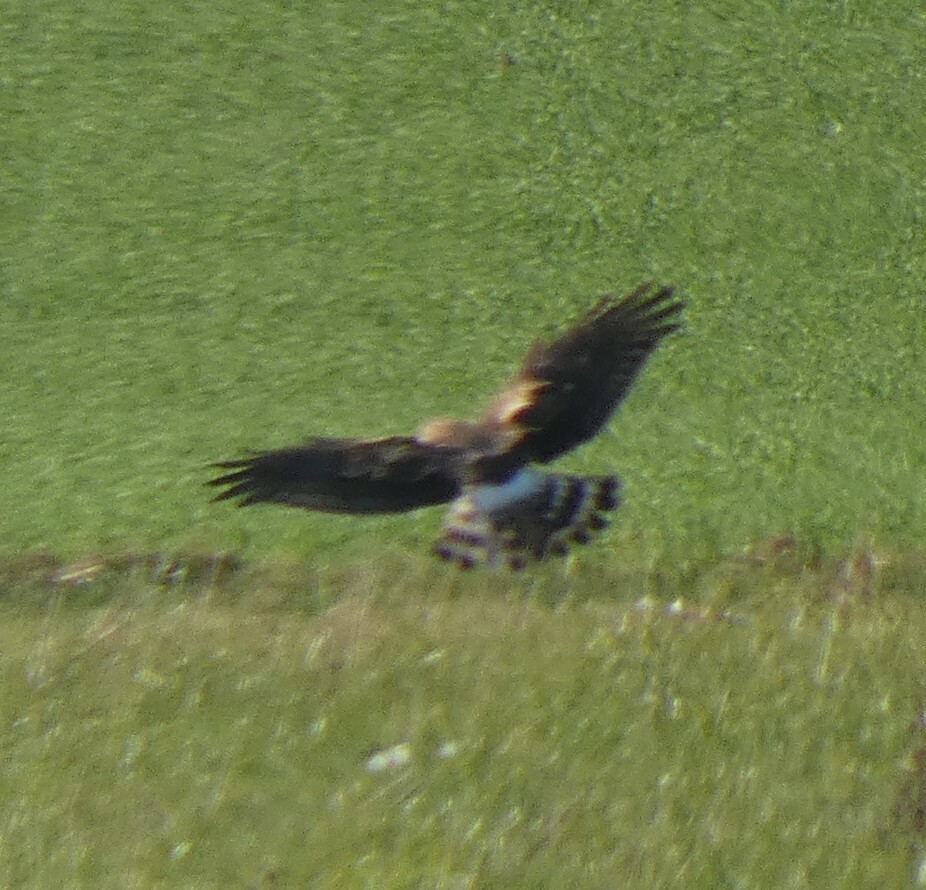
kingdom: Animalia
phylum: Chordata
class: Aves
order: Accipitriformes
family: Accipitridae
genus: Circus
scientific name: Circus cyaneus
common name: Hen harrier
